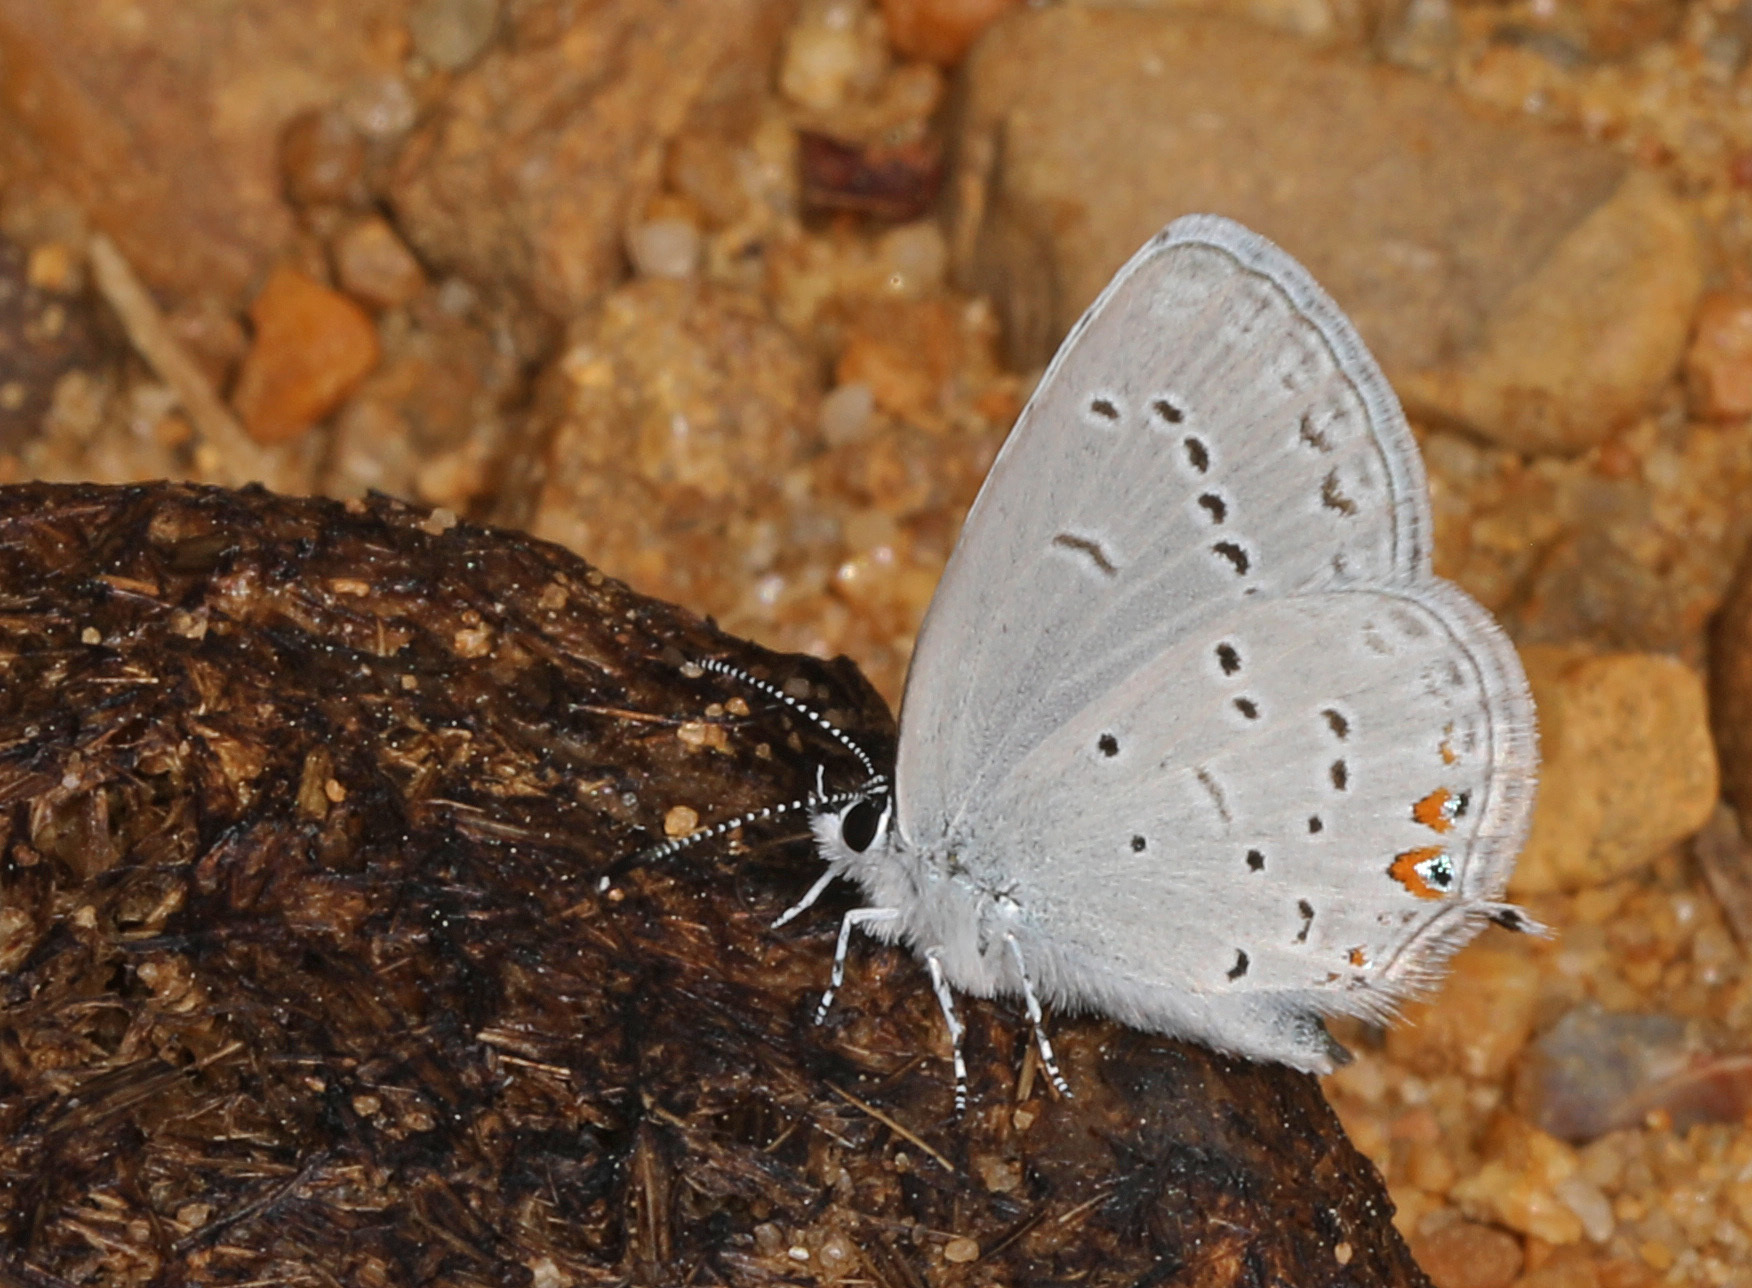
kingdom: Animalia
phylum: Arthropoda
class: Insecta
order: Lepidoptera
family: Lycaenidae
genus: Elkalyce
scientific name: Elkalyce comyntas
